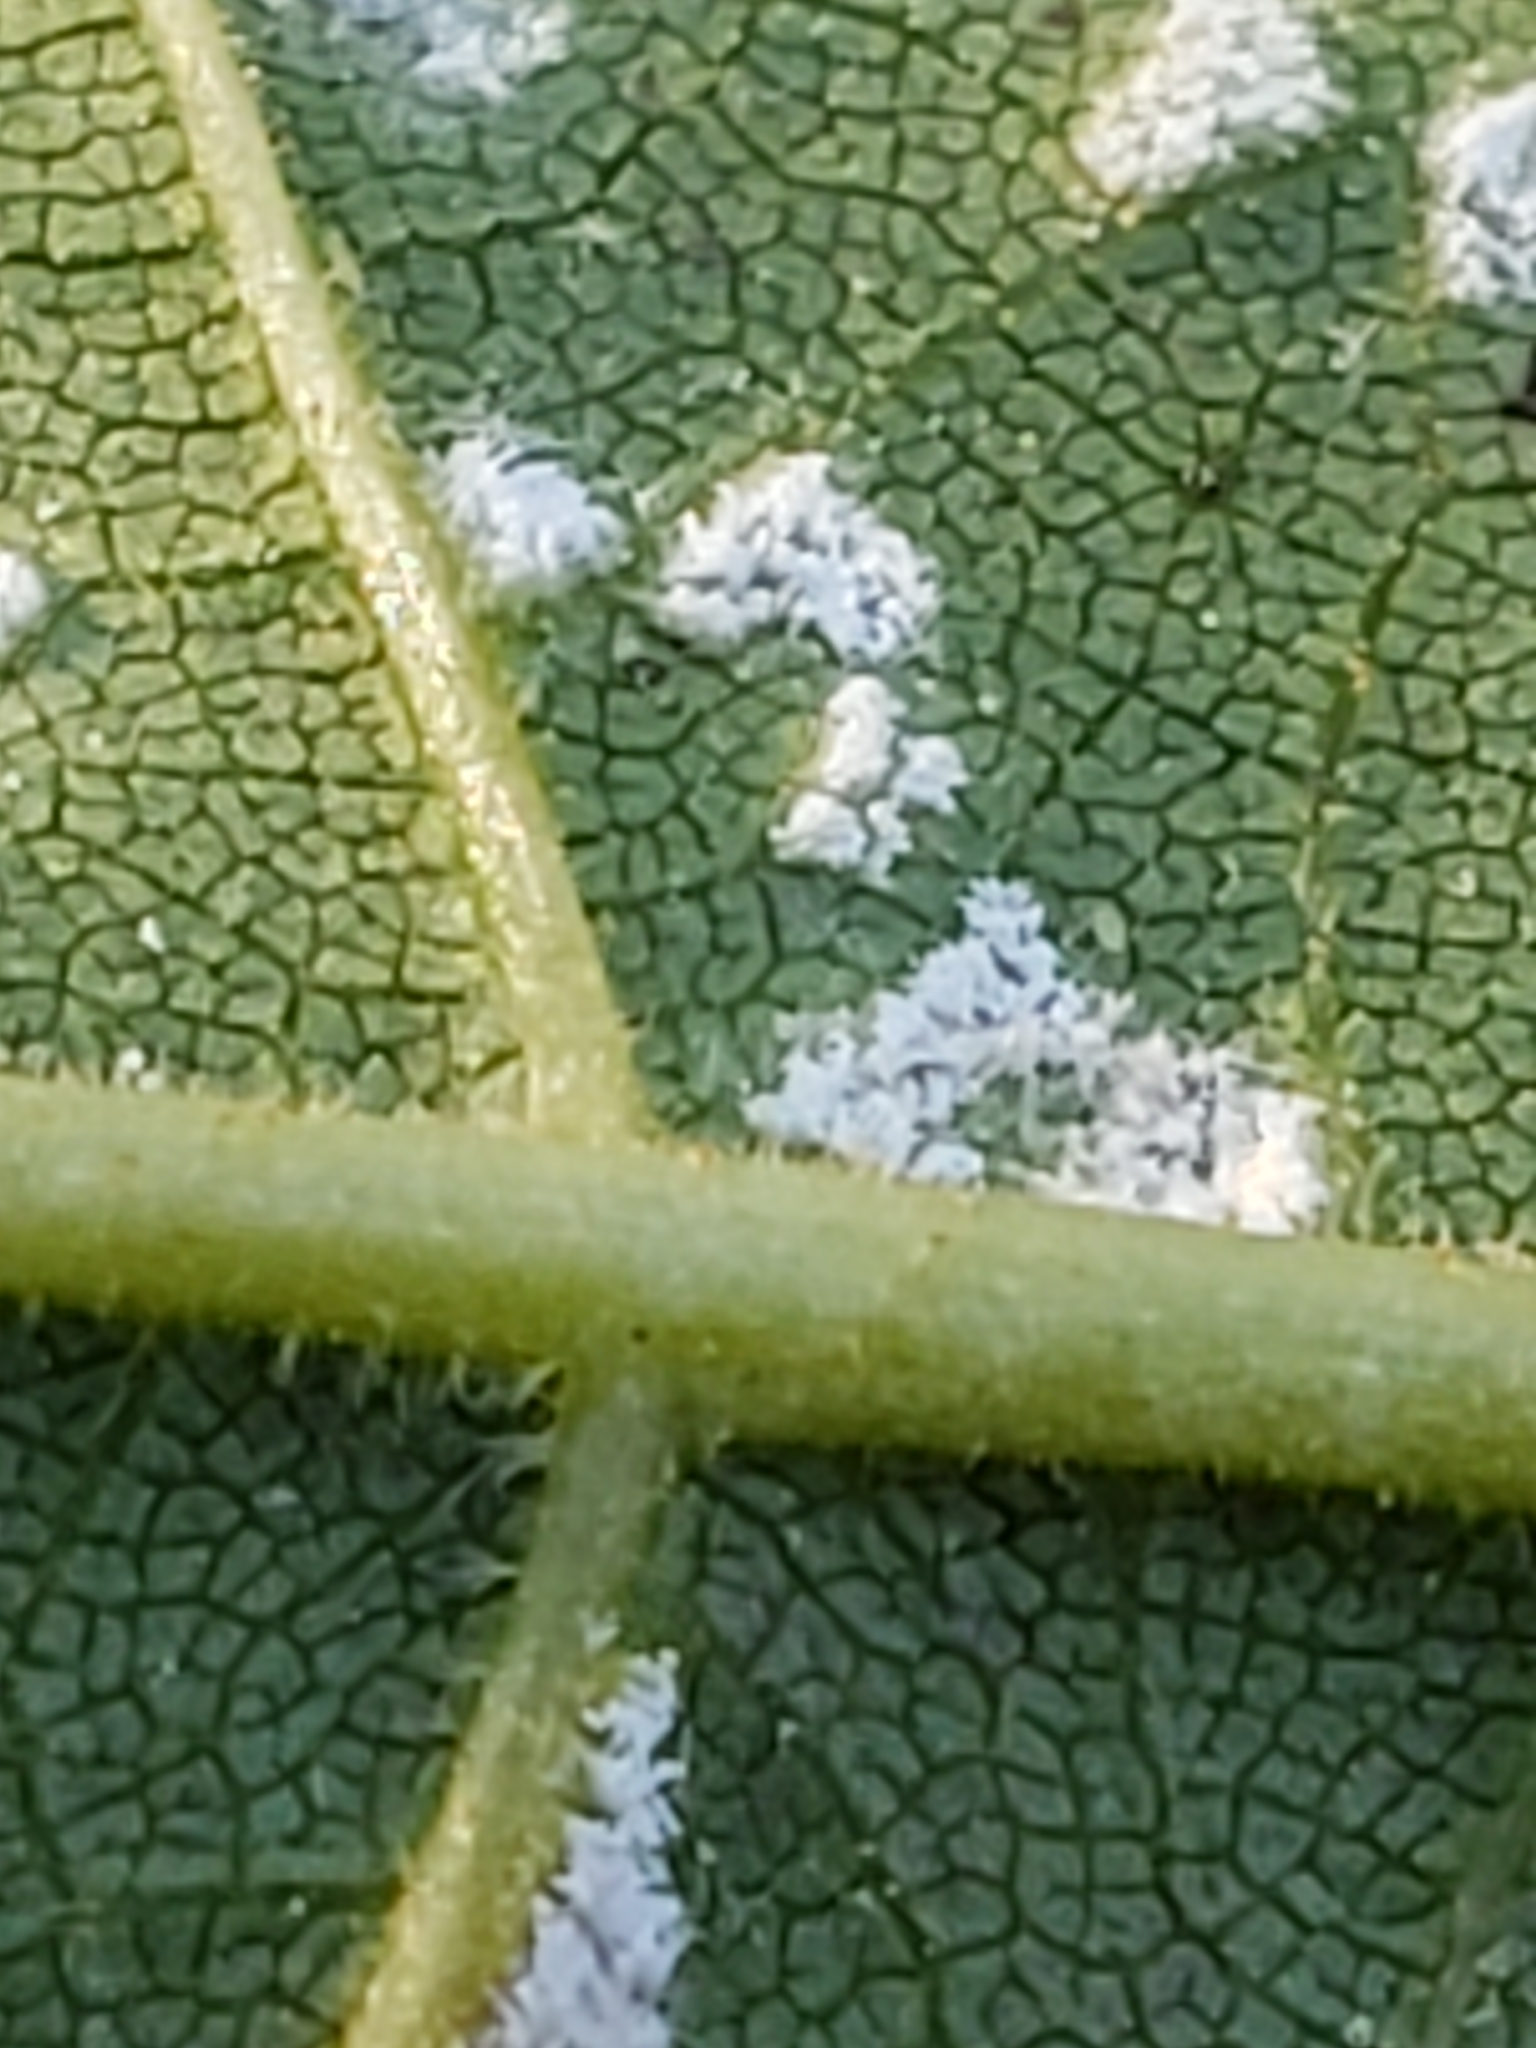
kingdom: Fungi
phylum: Basidiomycota
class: Exobasidiomycetes
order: Microstromatales
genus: Pseudomicrostroma
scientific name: Pseudomicrostroma juglandis
